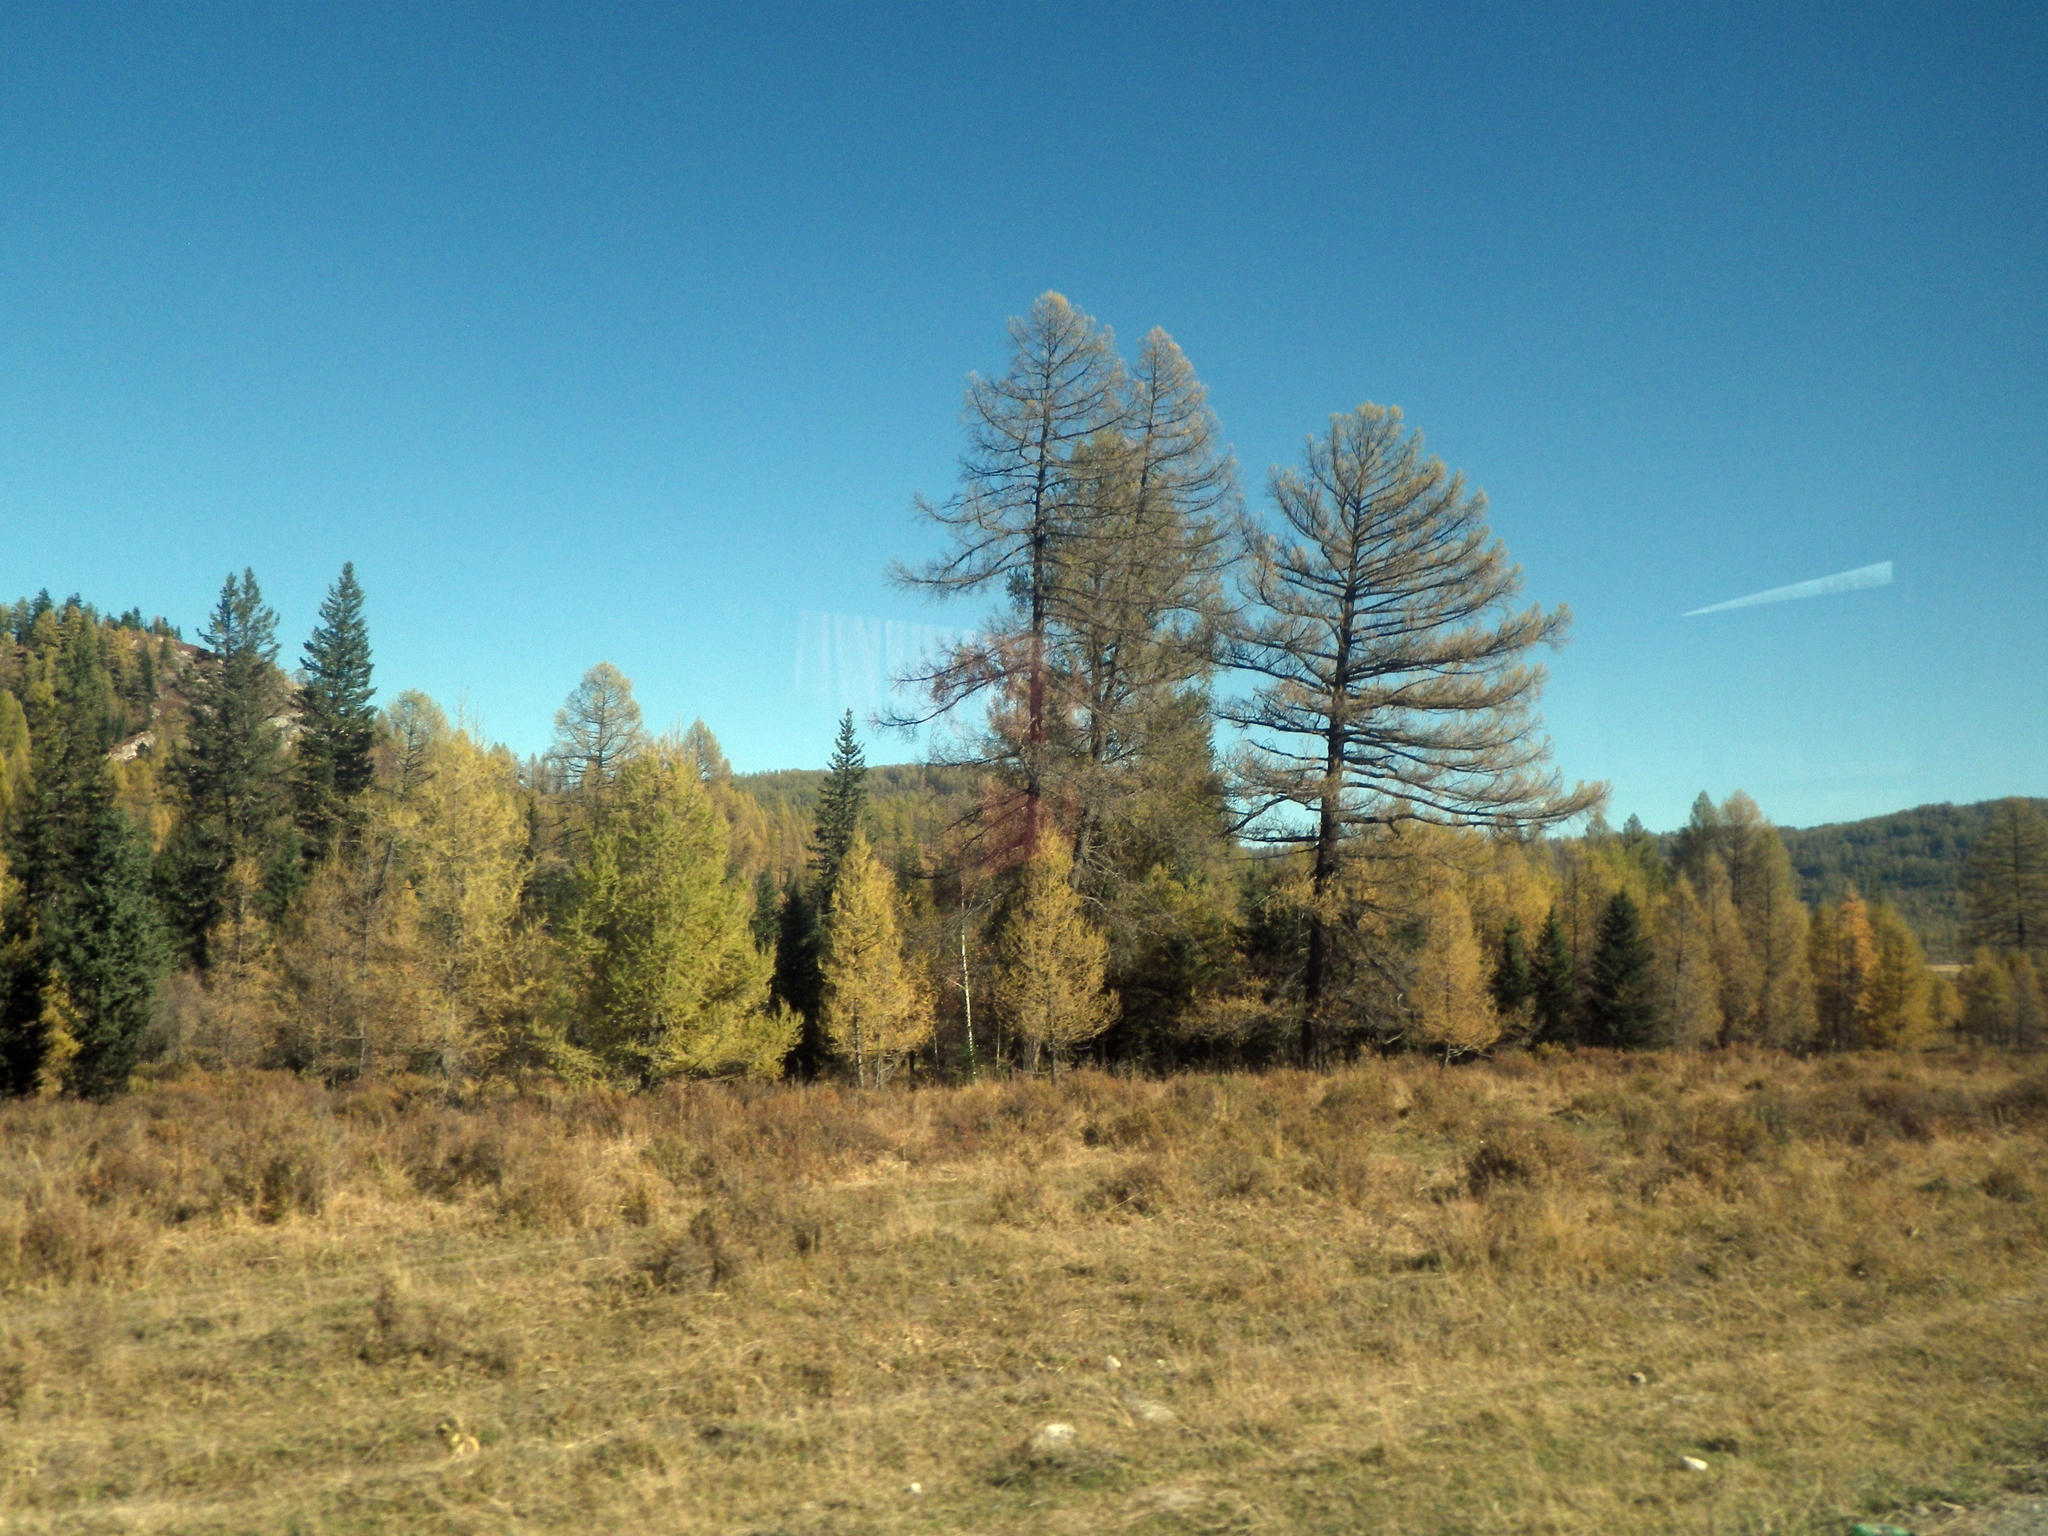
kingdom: Plantae
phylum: Tracheophyta
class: Pinopsida
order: Pinales
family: Pinaceae
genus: Picea
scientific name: Picea obovata
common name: Siberian spruce
